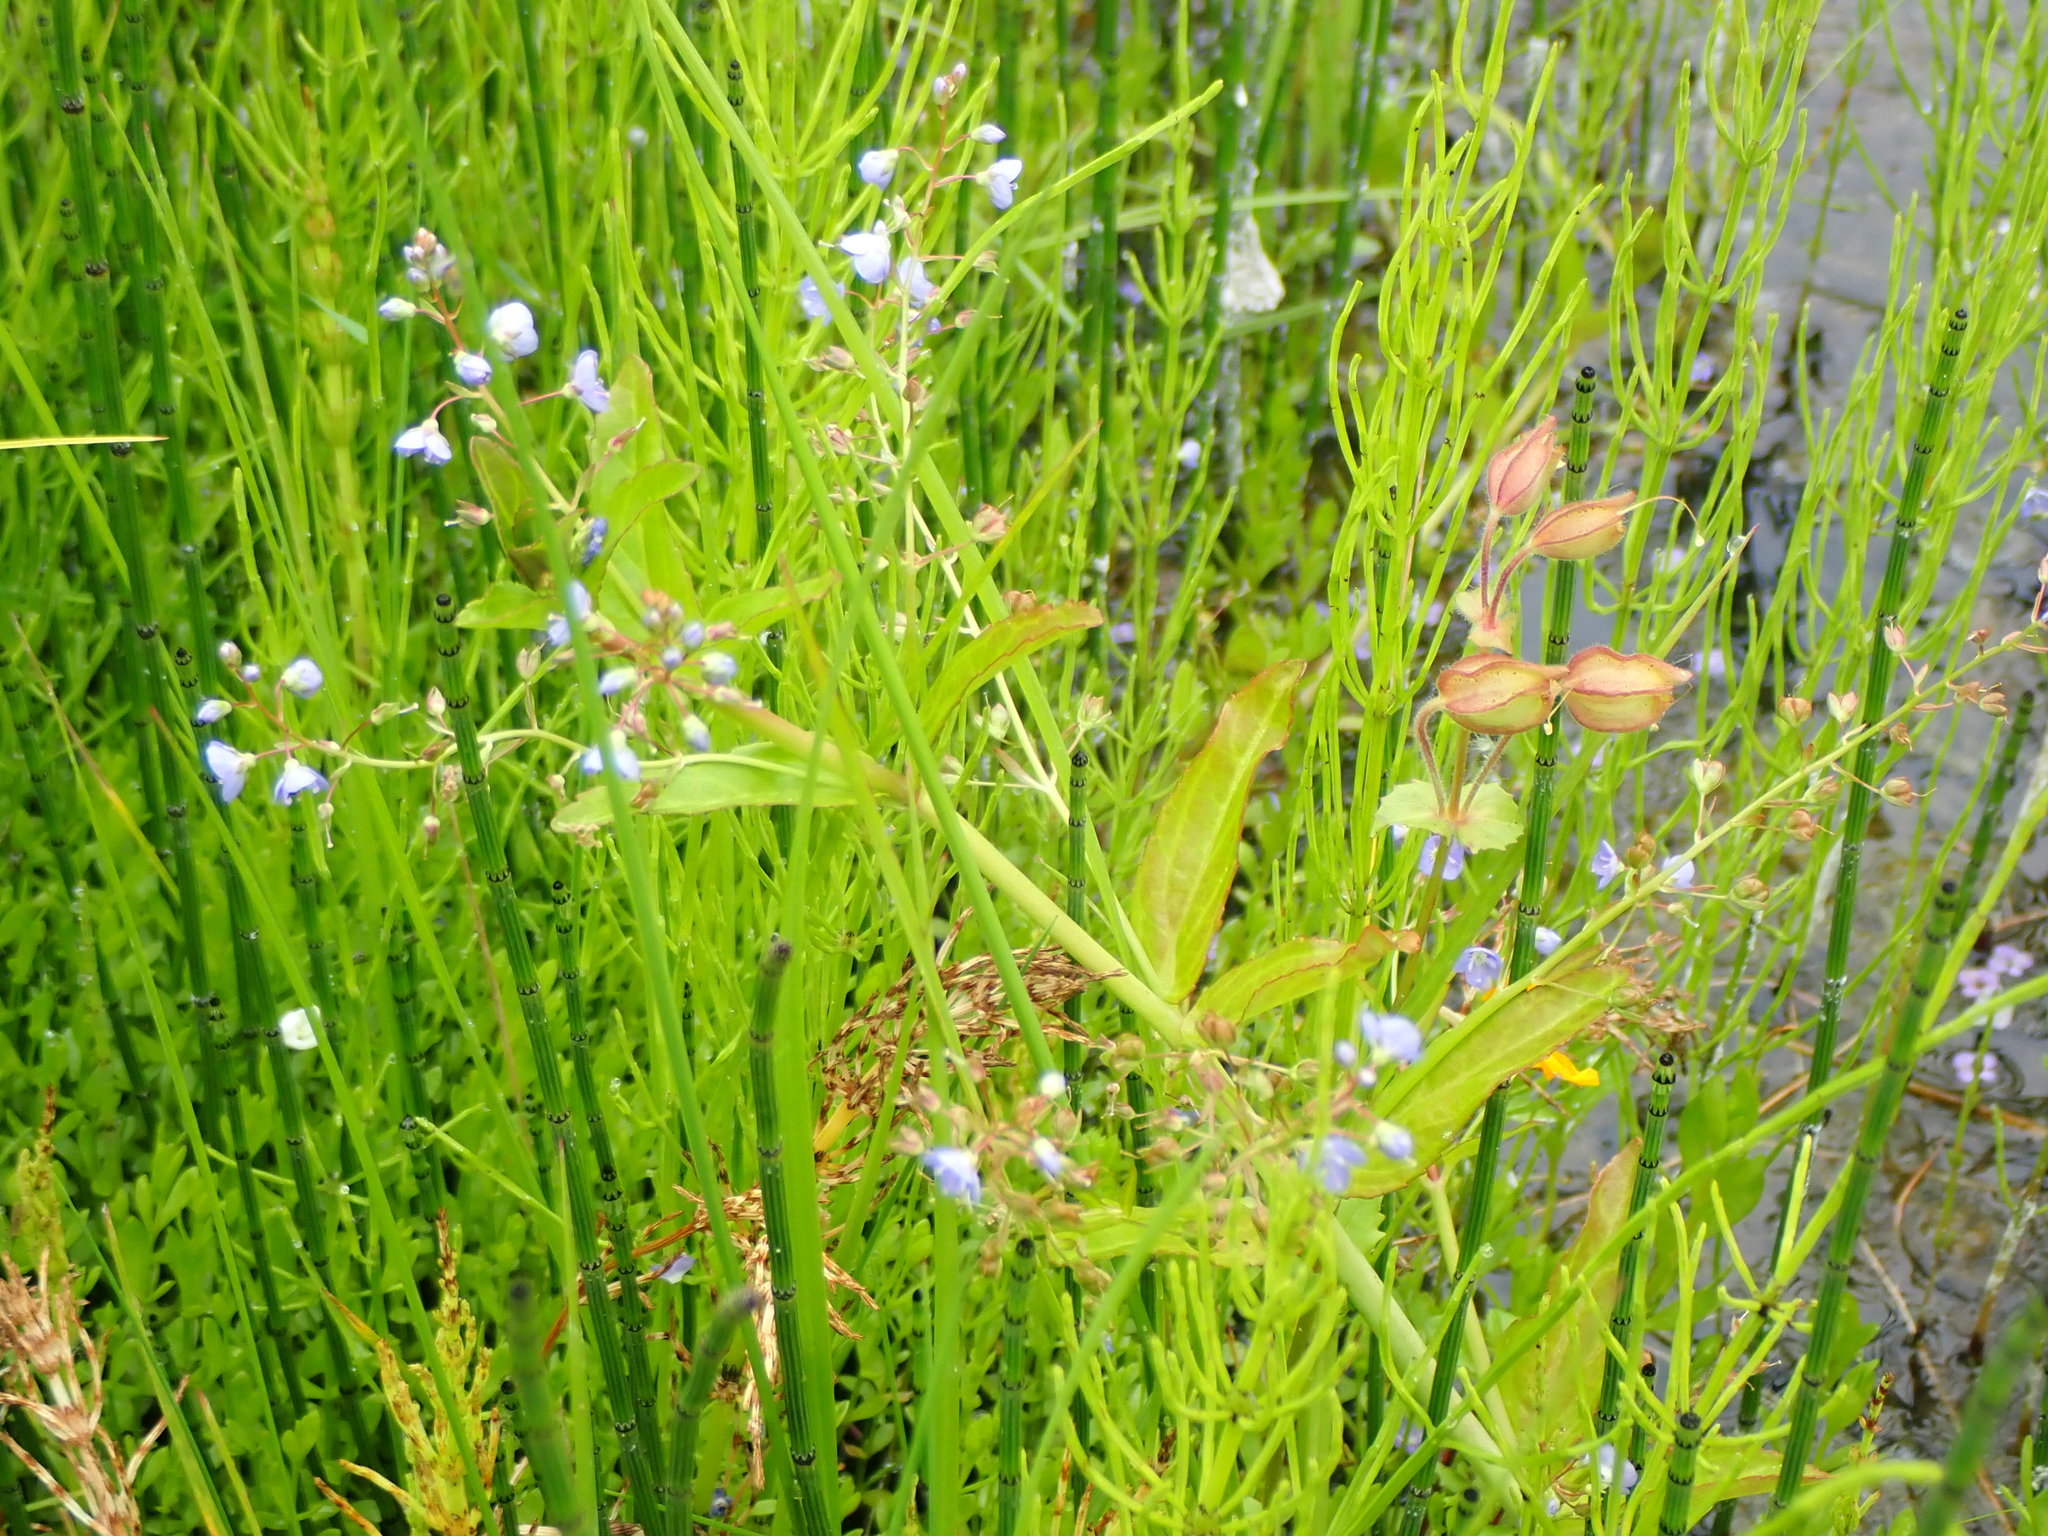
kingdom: Plantae
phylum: Tracheophyta
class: Magnoliopsida
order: Lamiales
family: Plantaginaceae
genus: Veronica
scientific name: Veronica americana
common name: American brooklime
